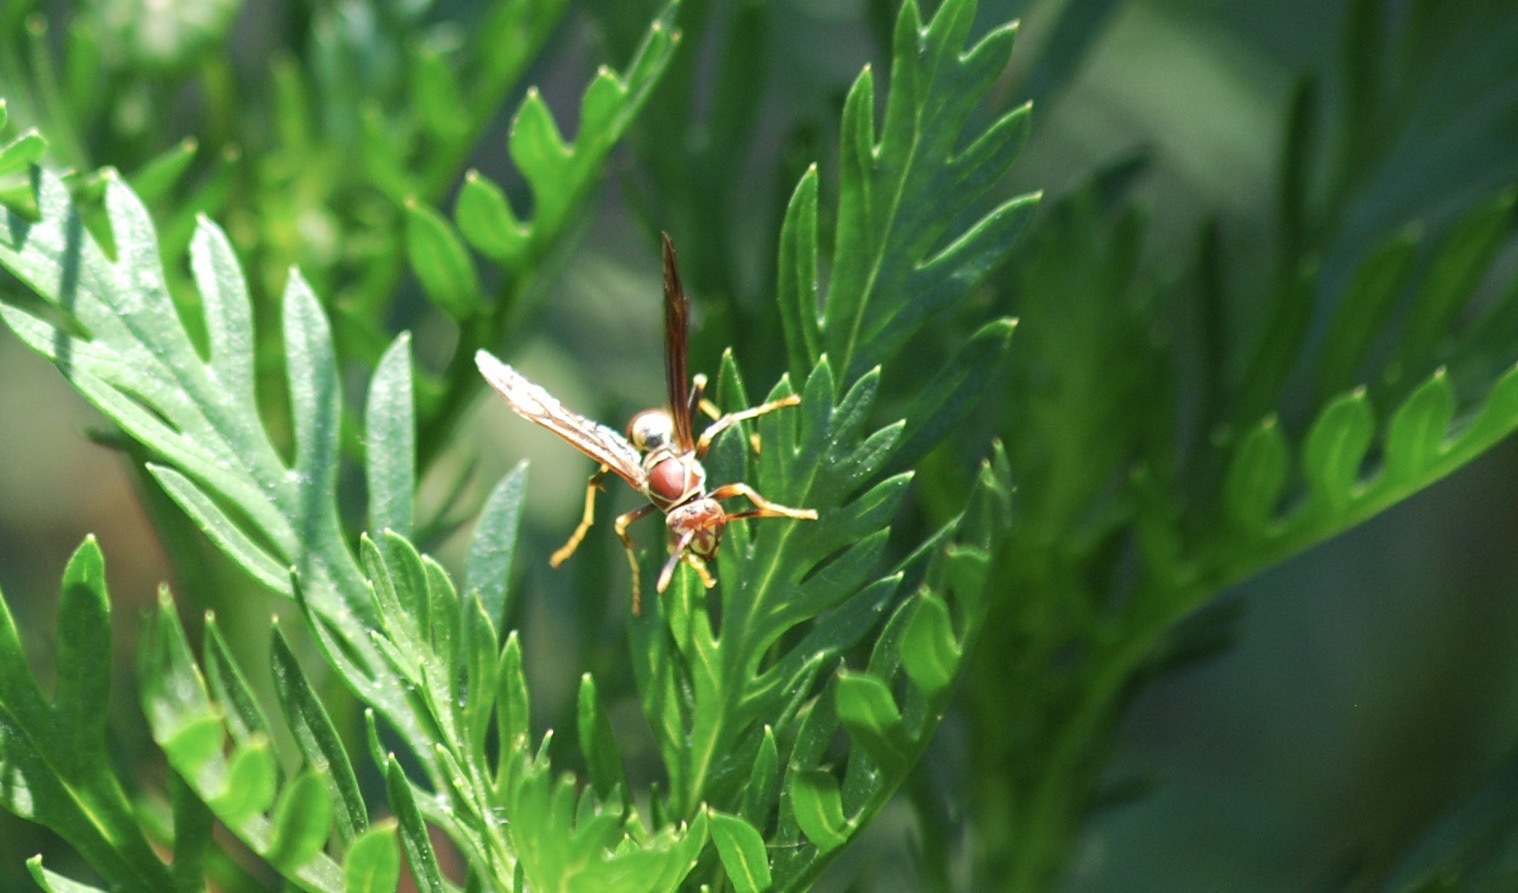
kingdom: Animalia
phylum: Arthropoda
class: Insecta
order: Hymenoptera
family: Eumenidae
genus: Polistes
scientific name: Polistes exclamans
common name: Paper wasp
